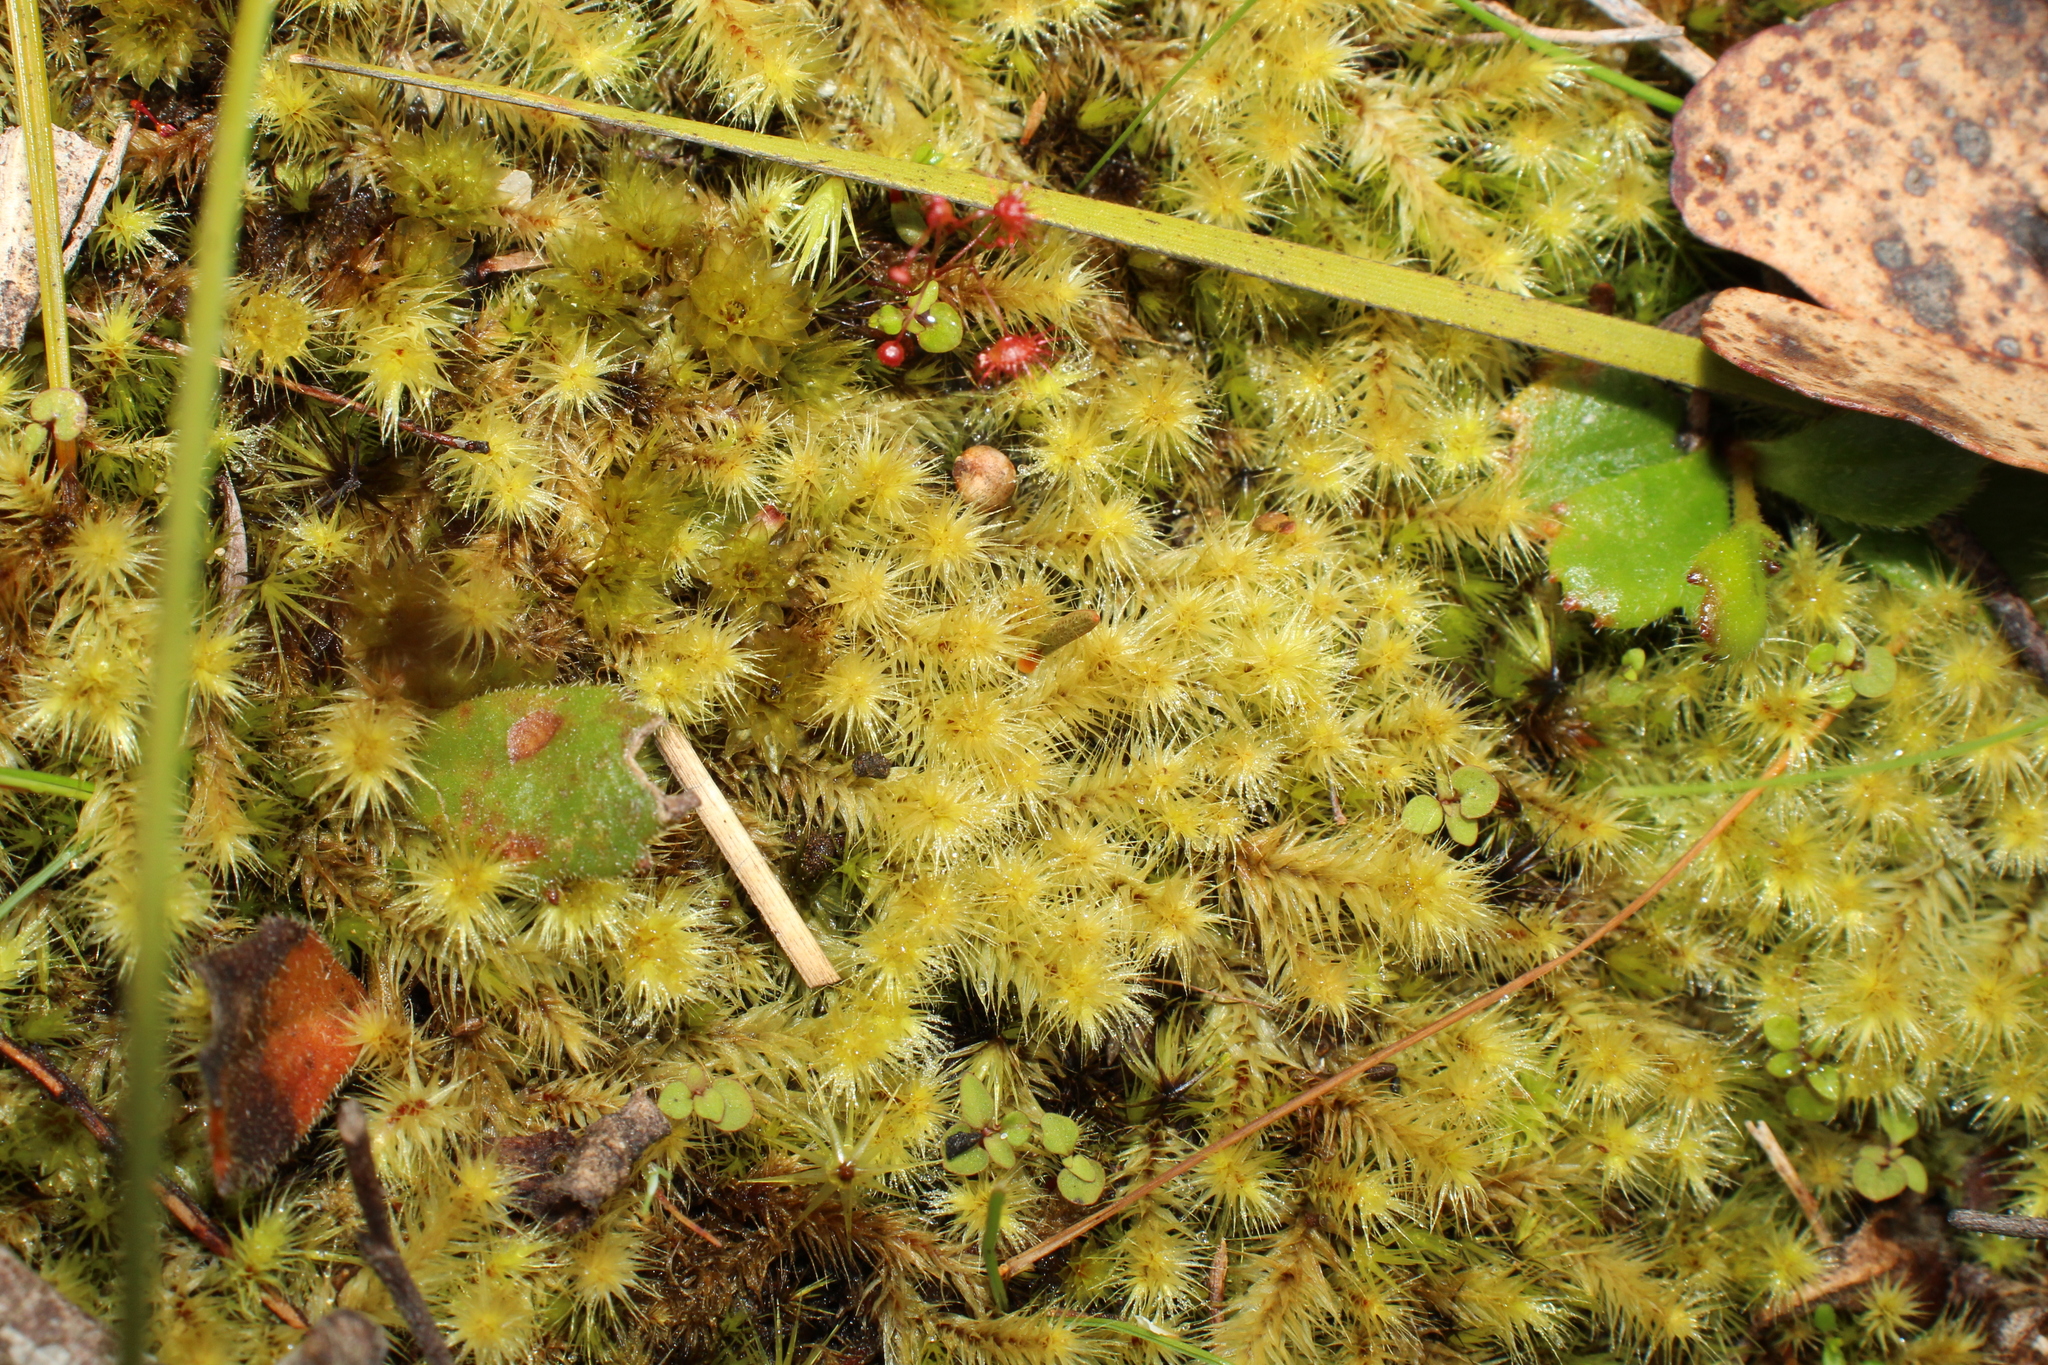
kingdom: Plantae
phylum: Bryophyta
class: Bryopsida
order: Bartramiales
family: Bartramiaceae
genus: Breutelia
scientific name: Breutelia affinis
